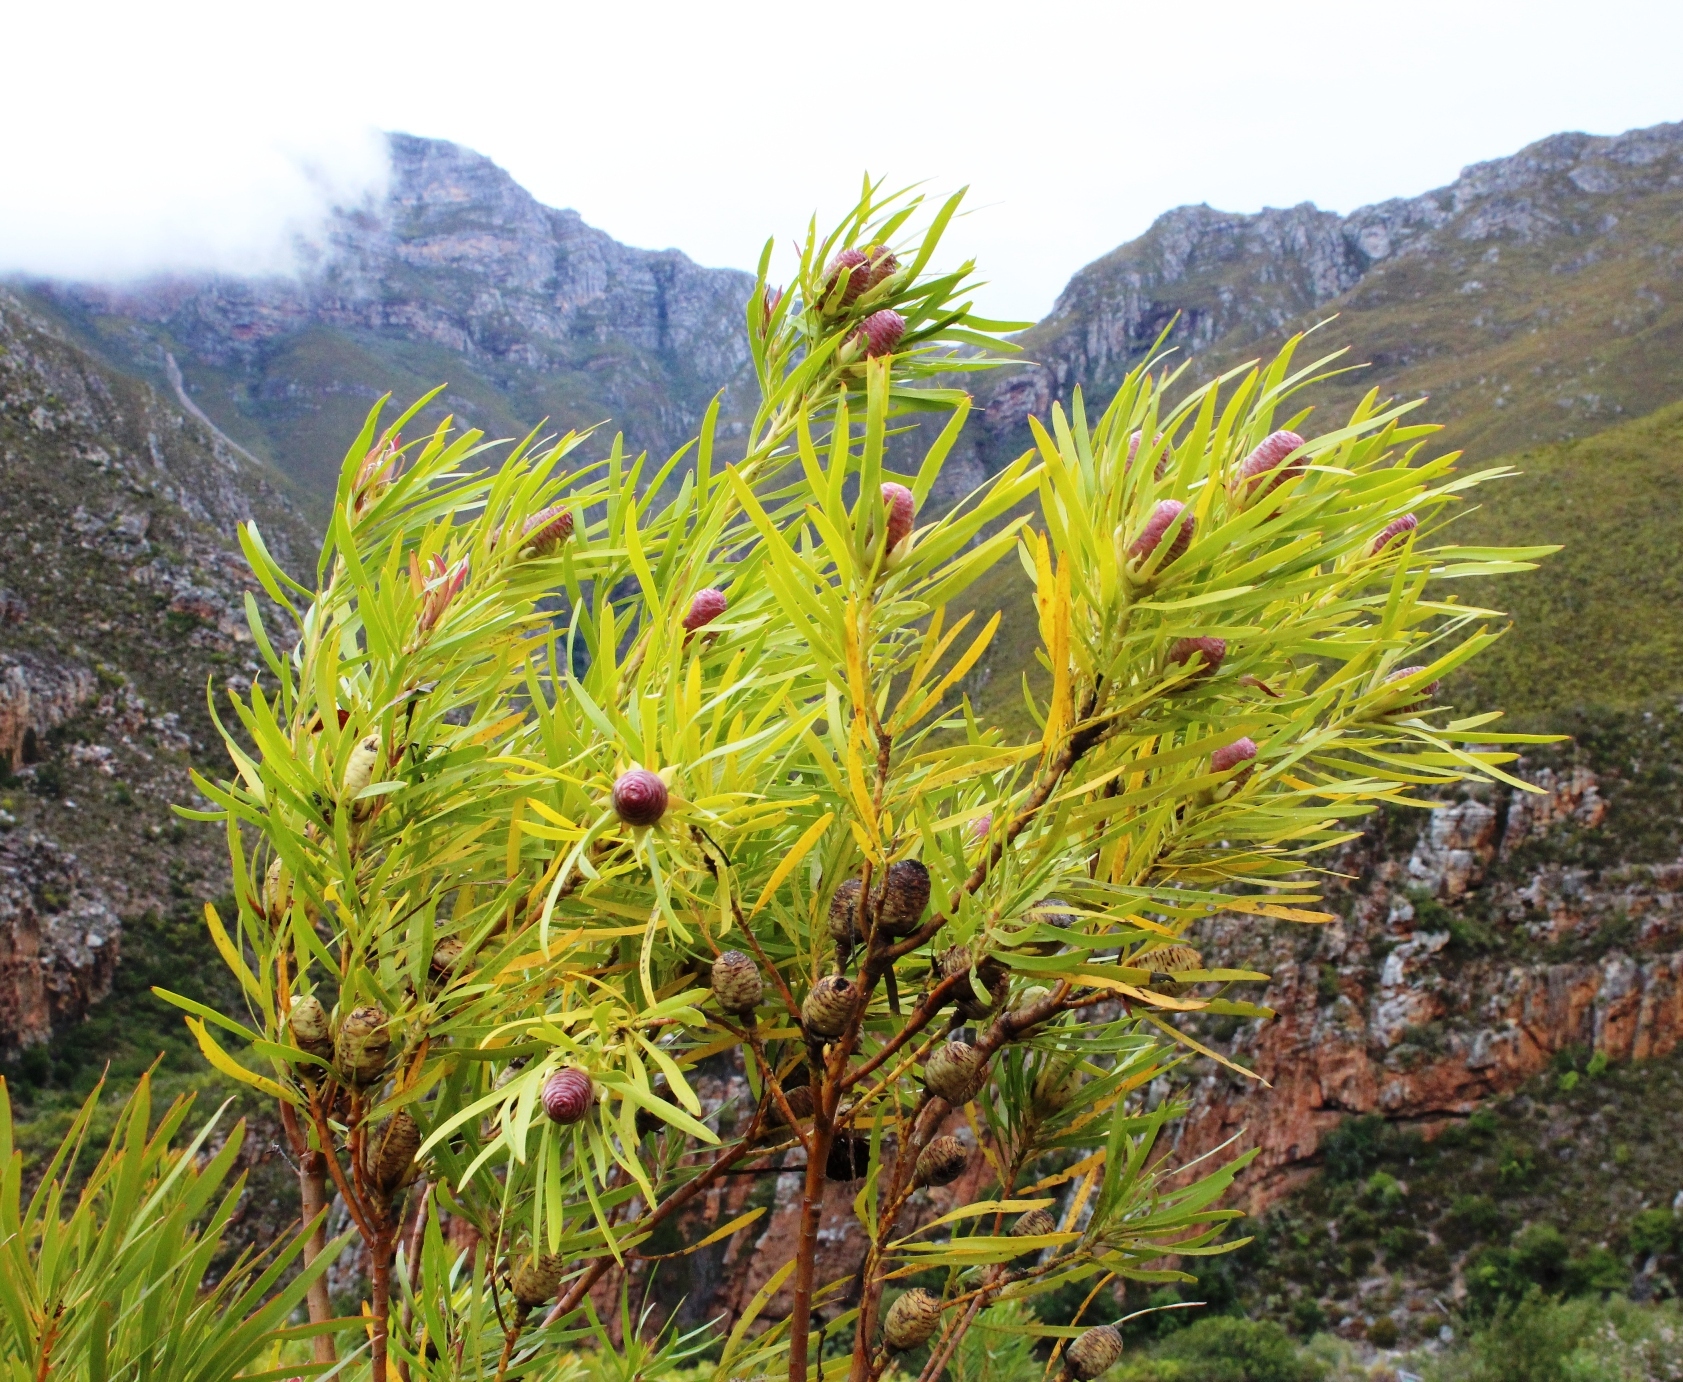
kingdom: Plantae
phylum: Tracheophyta
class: Magnoliopsida
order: Proteales
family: Proteaceae
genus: Leucadendron
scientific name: Leucadendron eucalyptifolium
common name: Gum-leaved conebush
